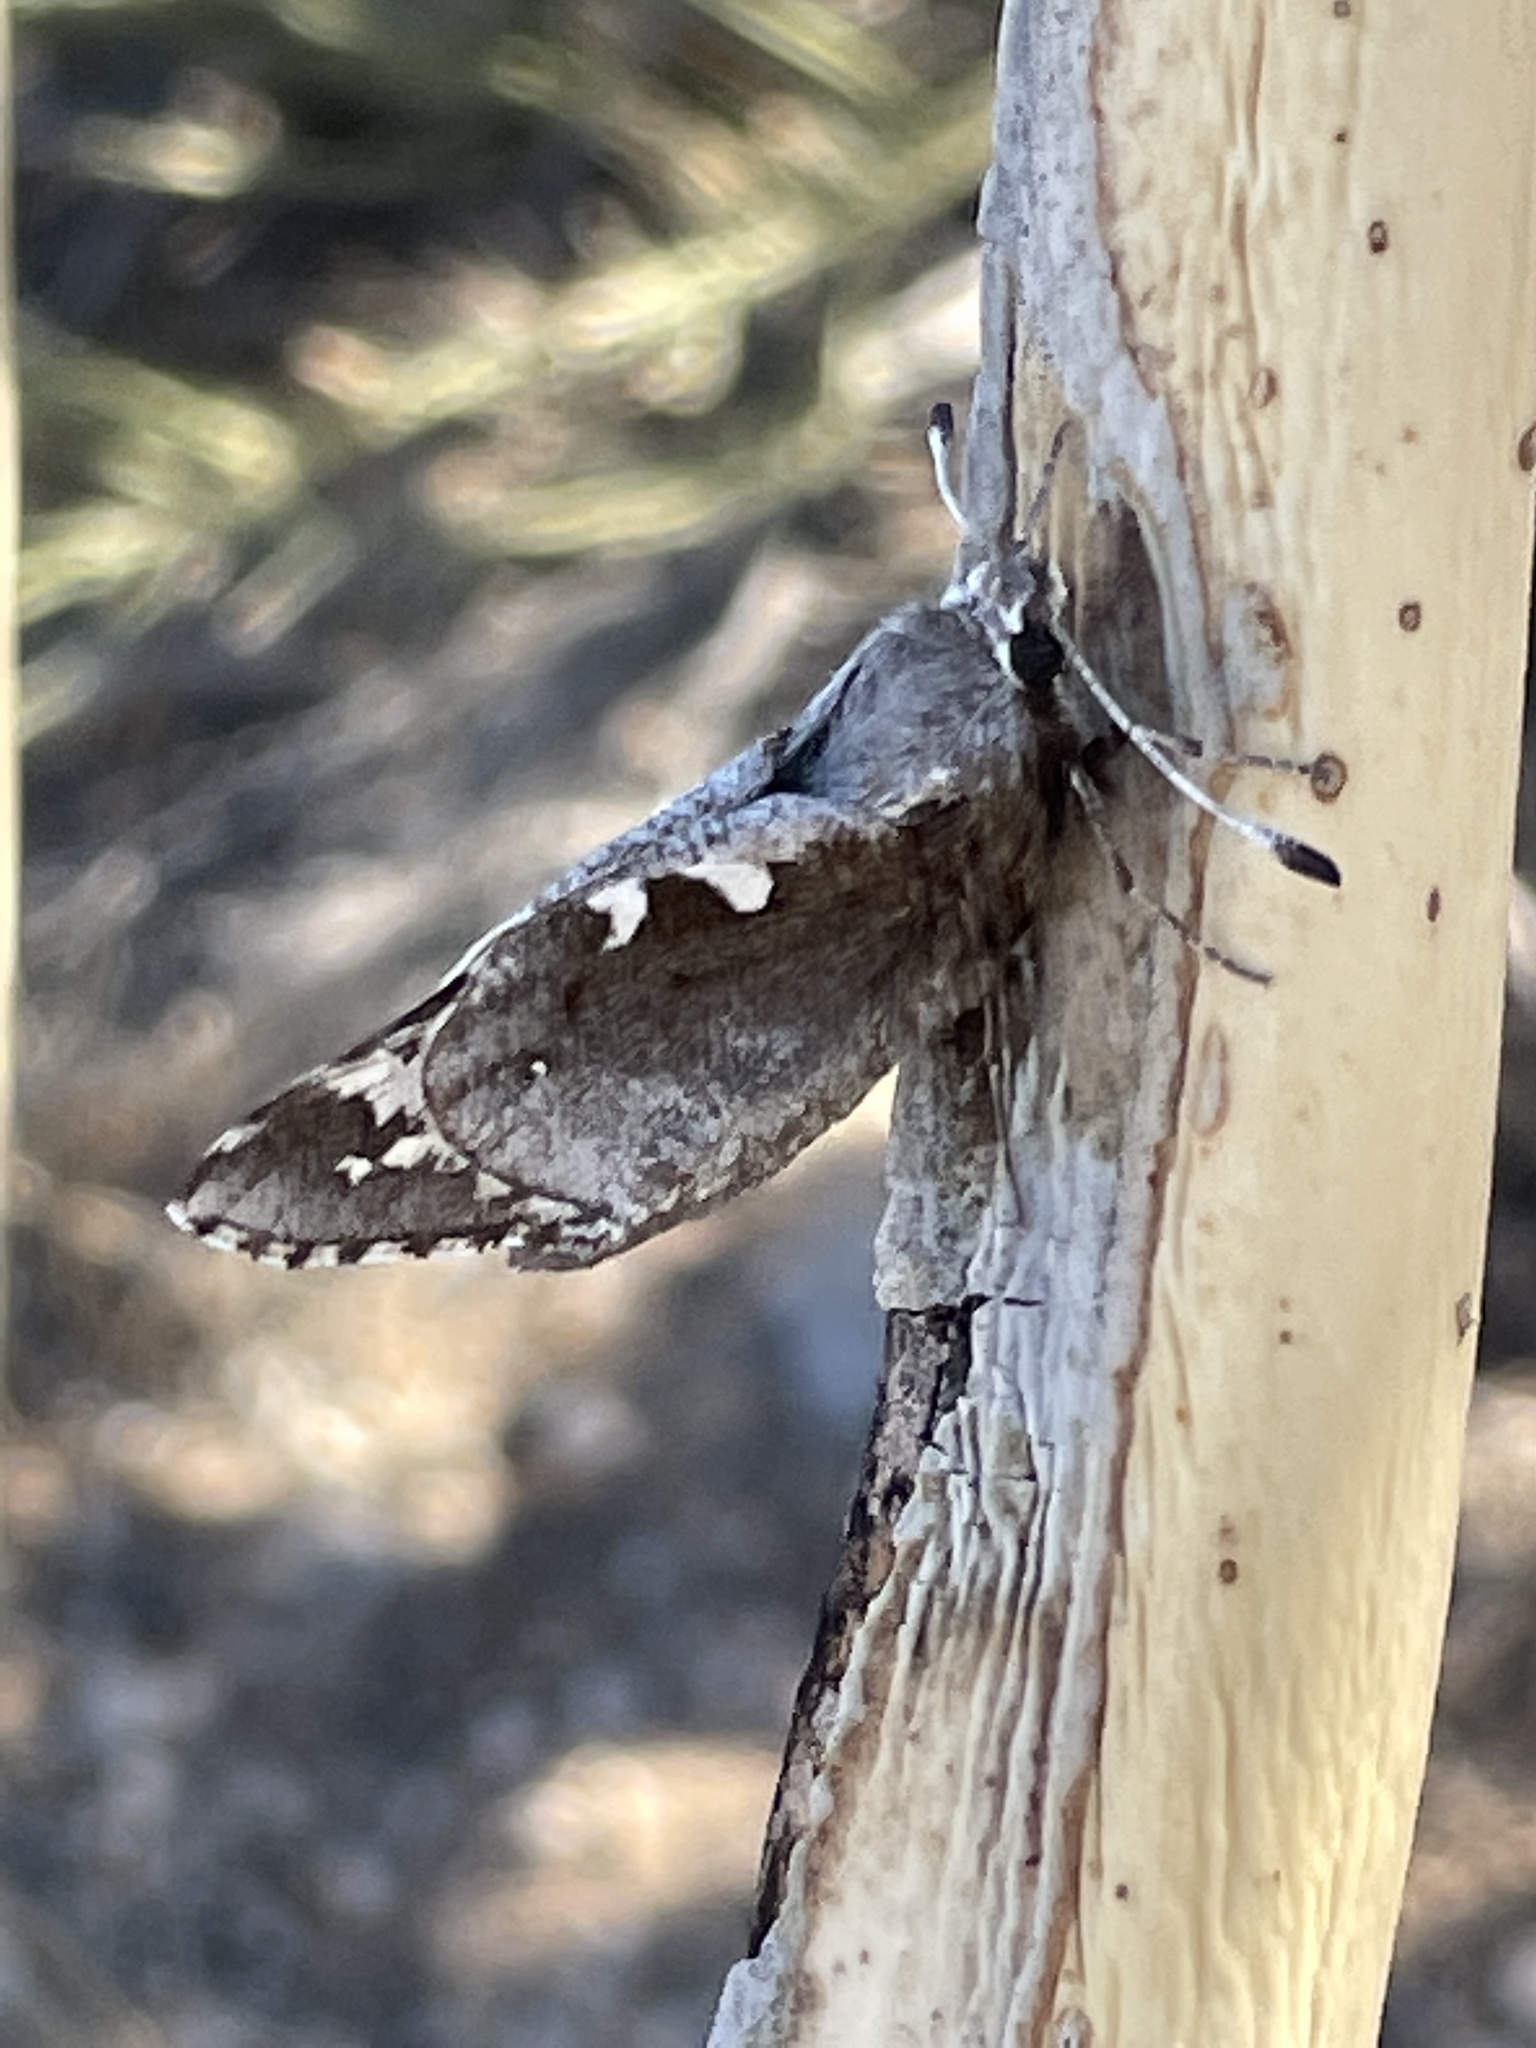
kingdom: Animalia
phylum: Arthropoda
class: Insecta
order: Lepidoptera
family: Hesperiidae
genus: Megathymus
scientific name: Megathymus yuccae
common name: Yucca giant-skipper
